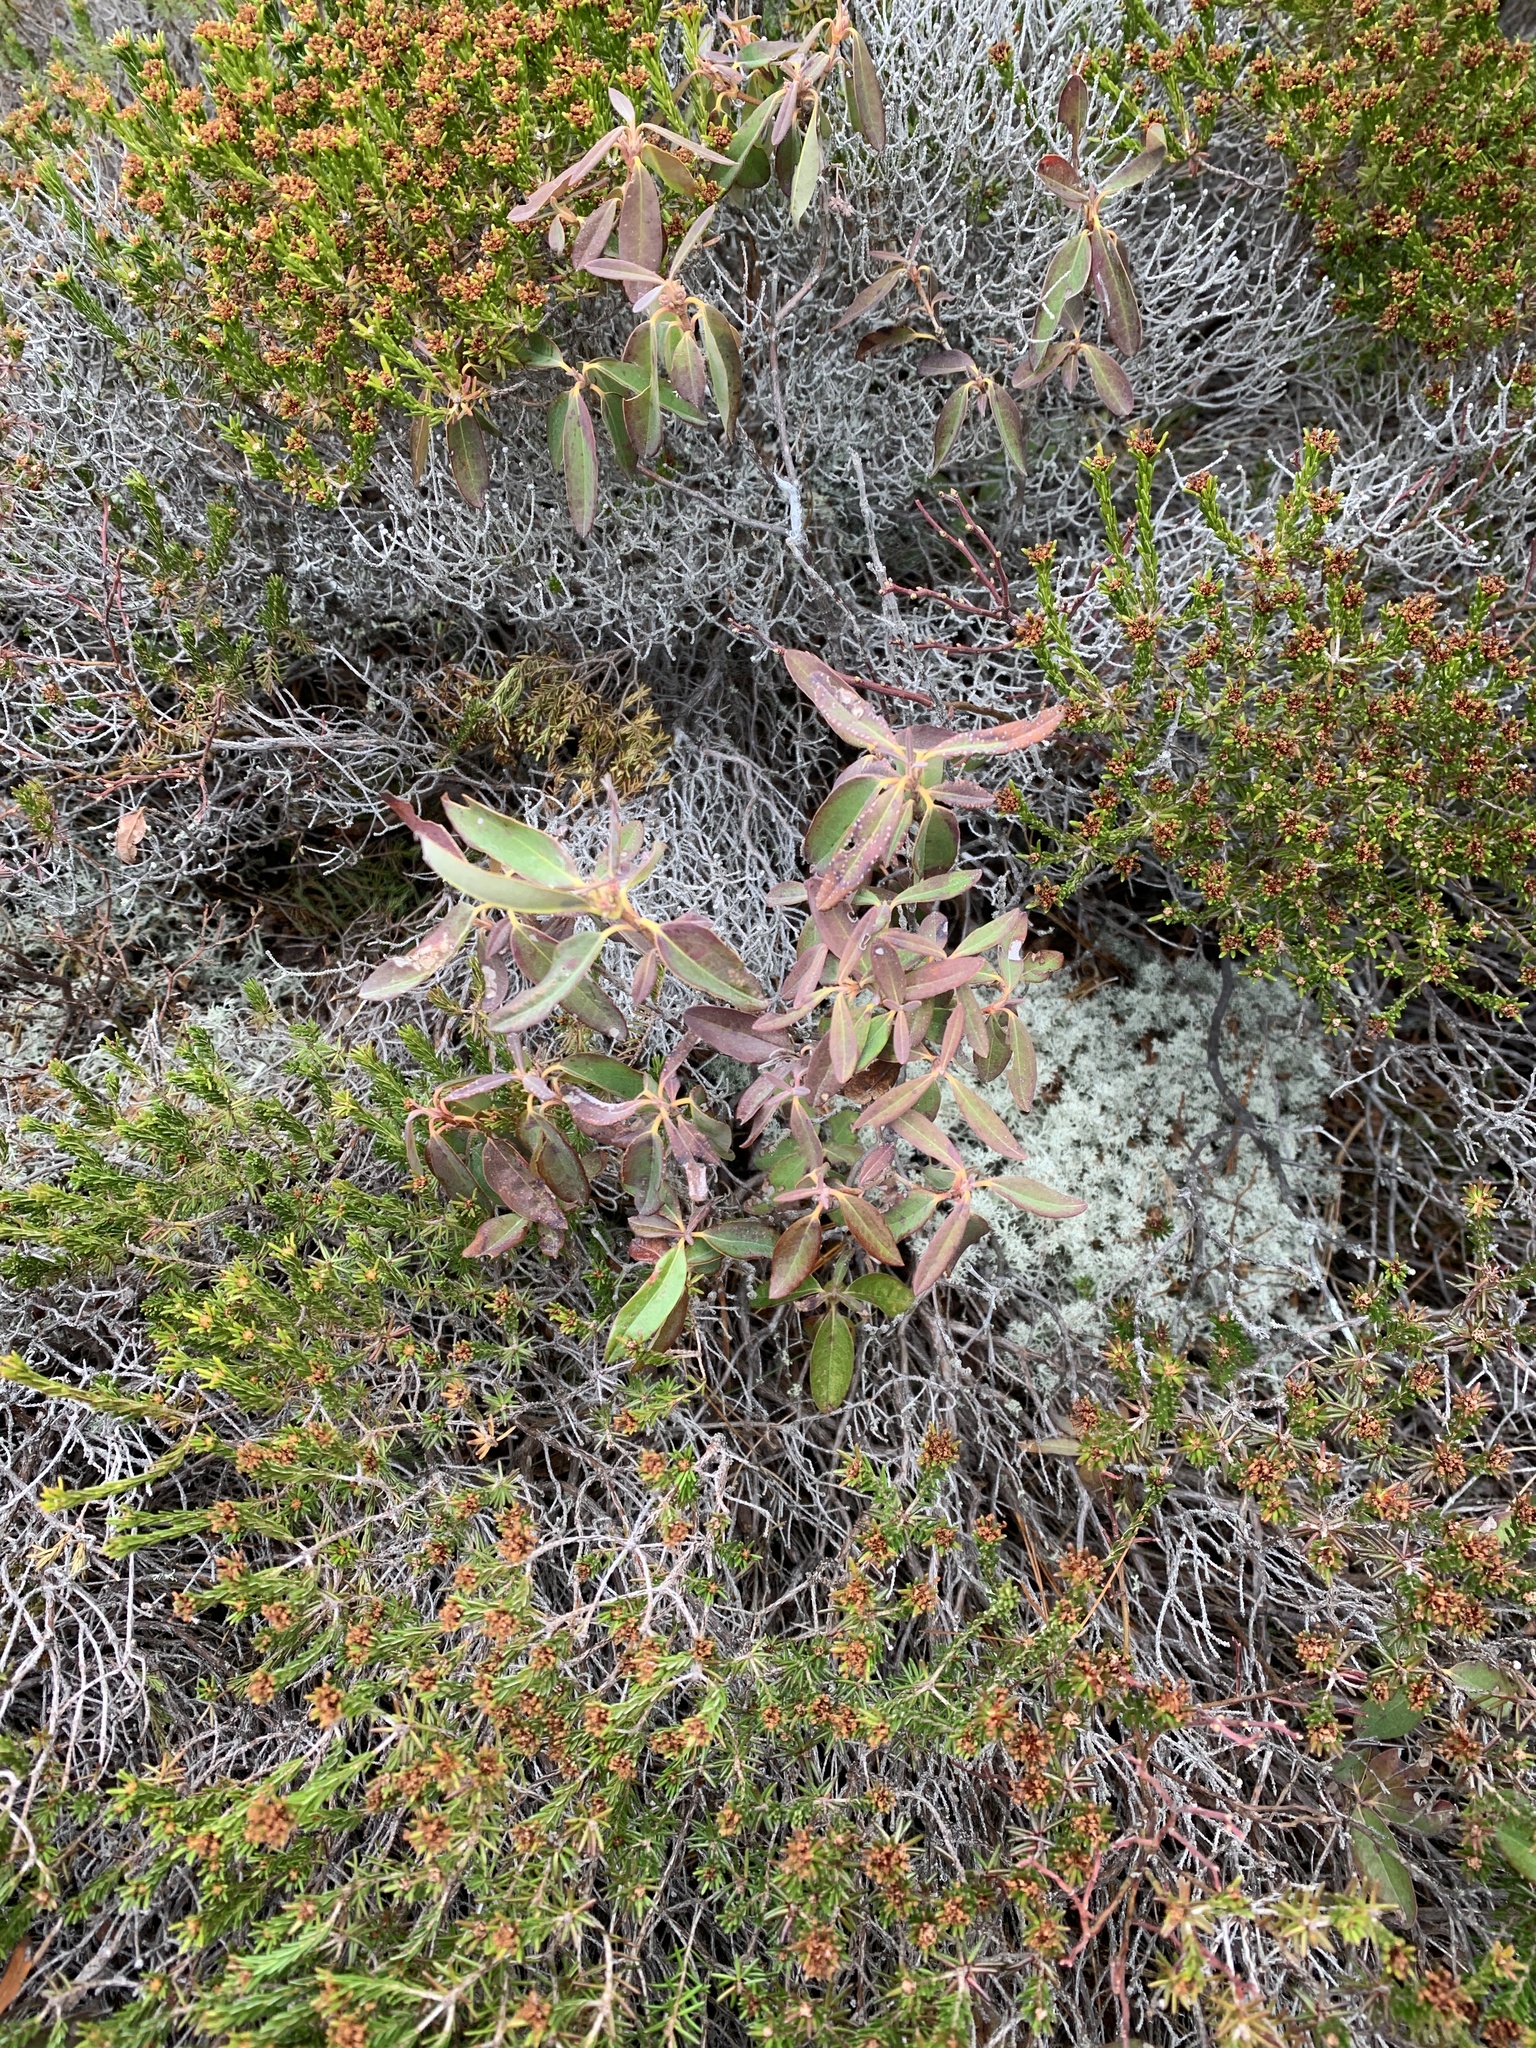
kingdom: Plantae
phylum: Tracheophyta
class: Magnoliopsida
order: Ericales
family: Ericaceae
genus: Kalmia
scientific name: Kalmia angustifolia
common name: Sheep-laurel
